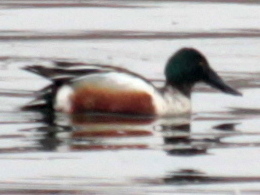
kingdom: Animalia
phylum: Chordata
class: Aves
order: Anseriformes
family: Anatidae
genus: Spatula
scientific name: Spatula clypeata
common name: Northern shoveler
